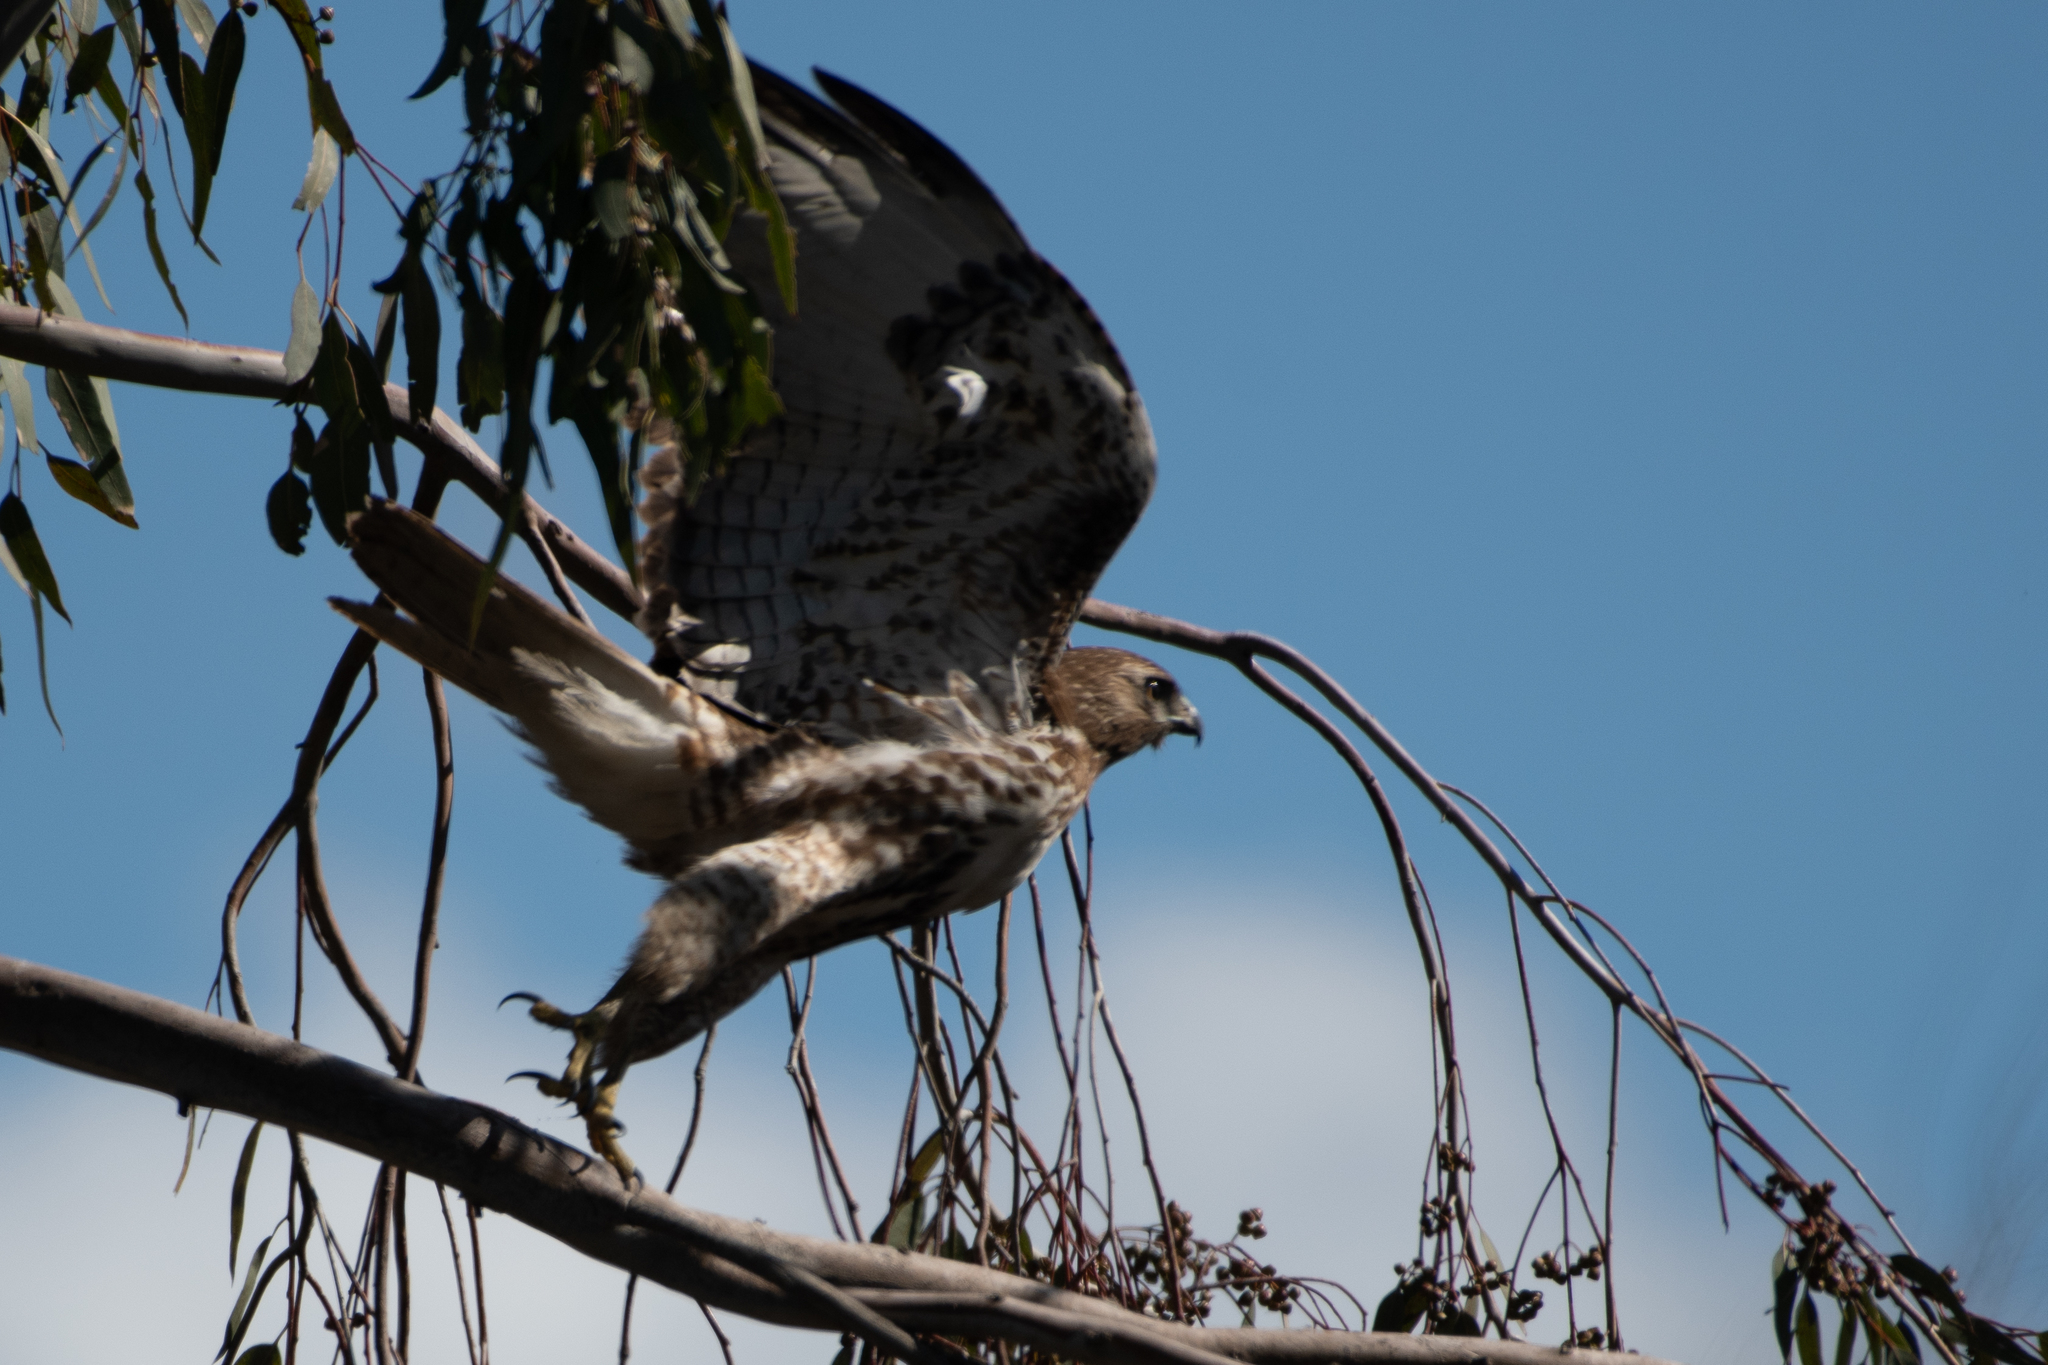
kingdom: Animalia
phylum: Chordata
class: Aves
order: Accipitriformes
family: Accipitridae
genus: Buteo
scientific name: Buteo jamaicensis
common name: Red-tailed hawk
